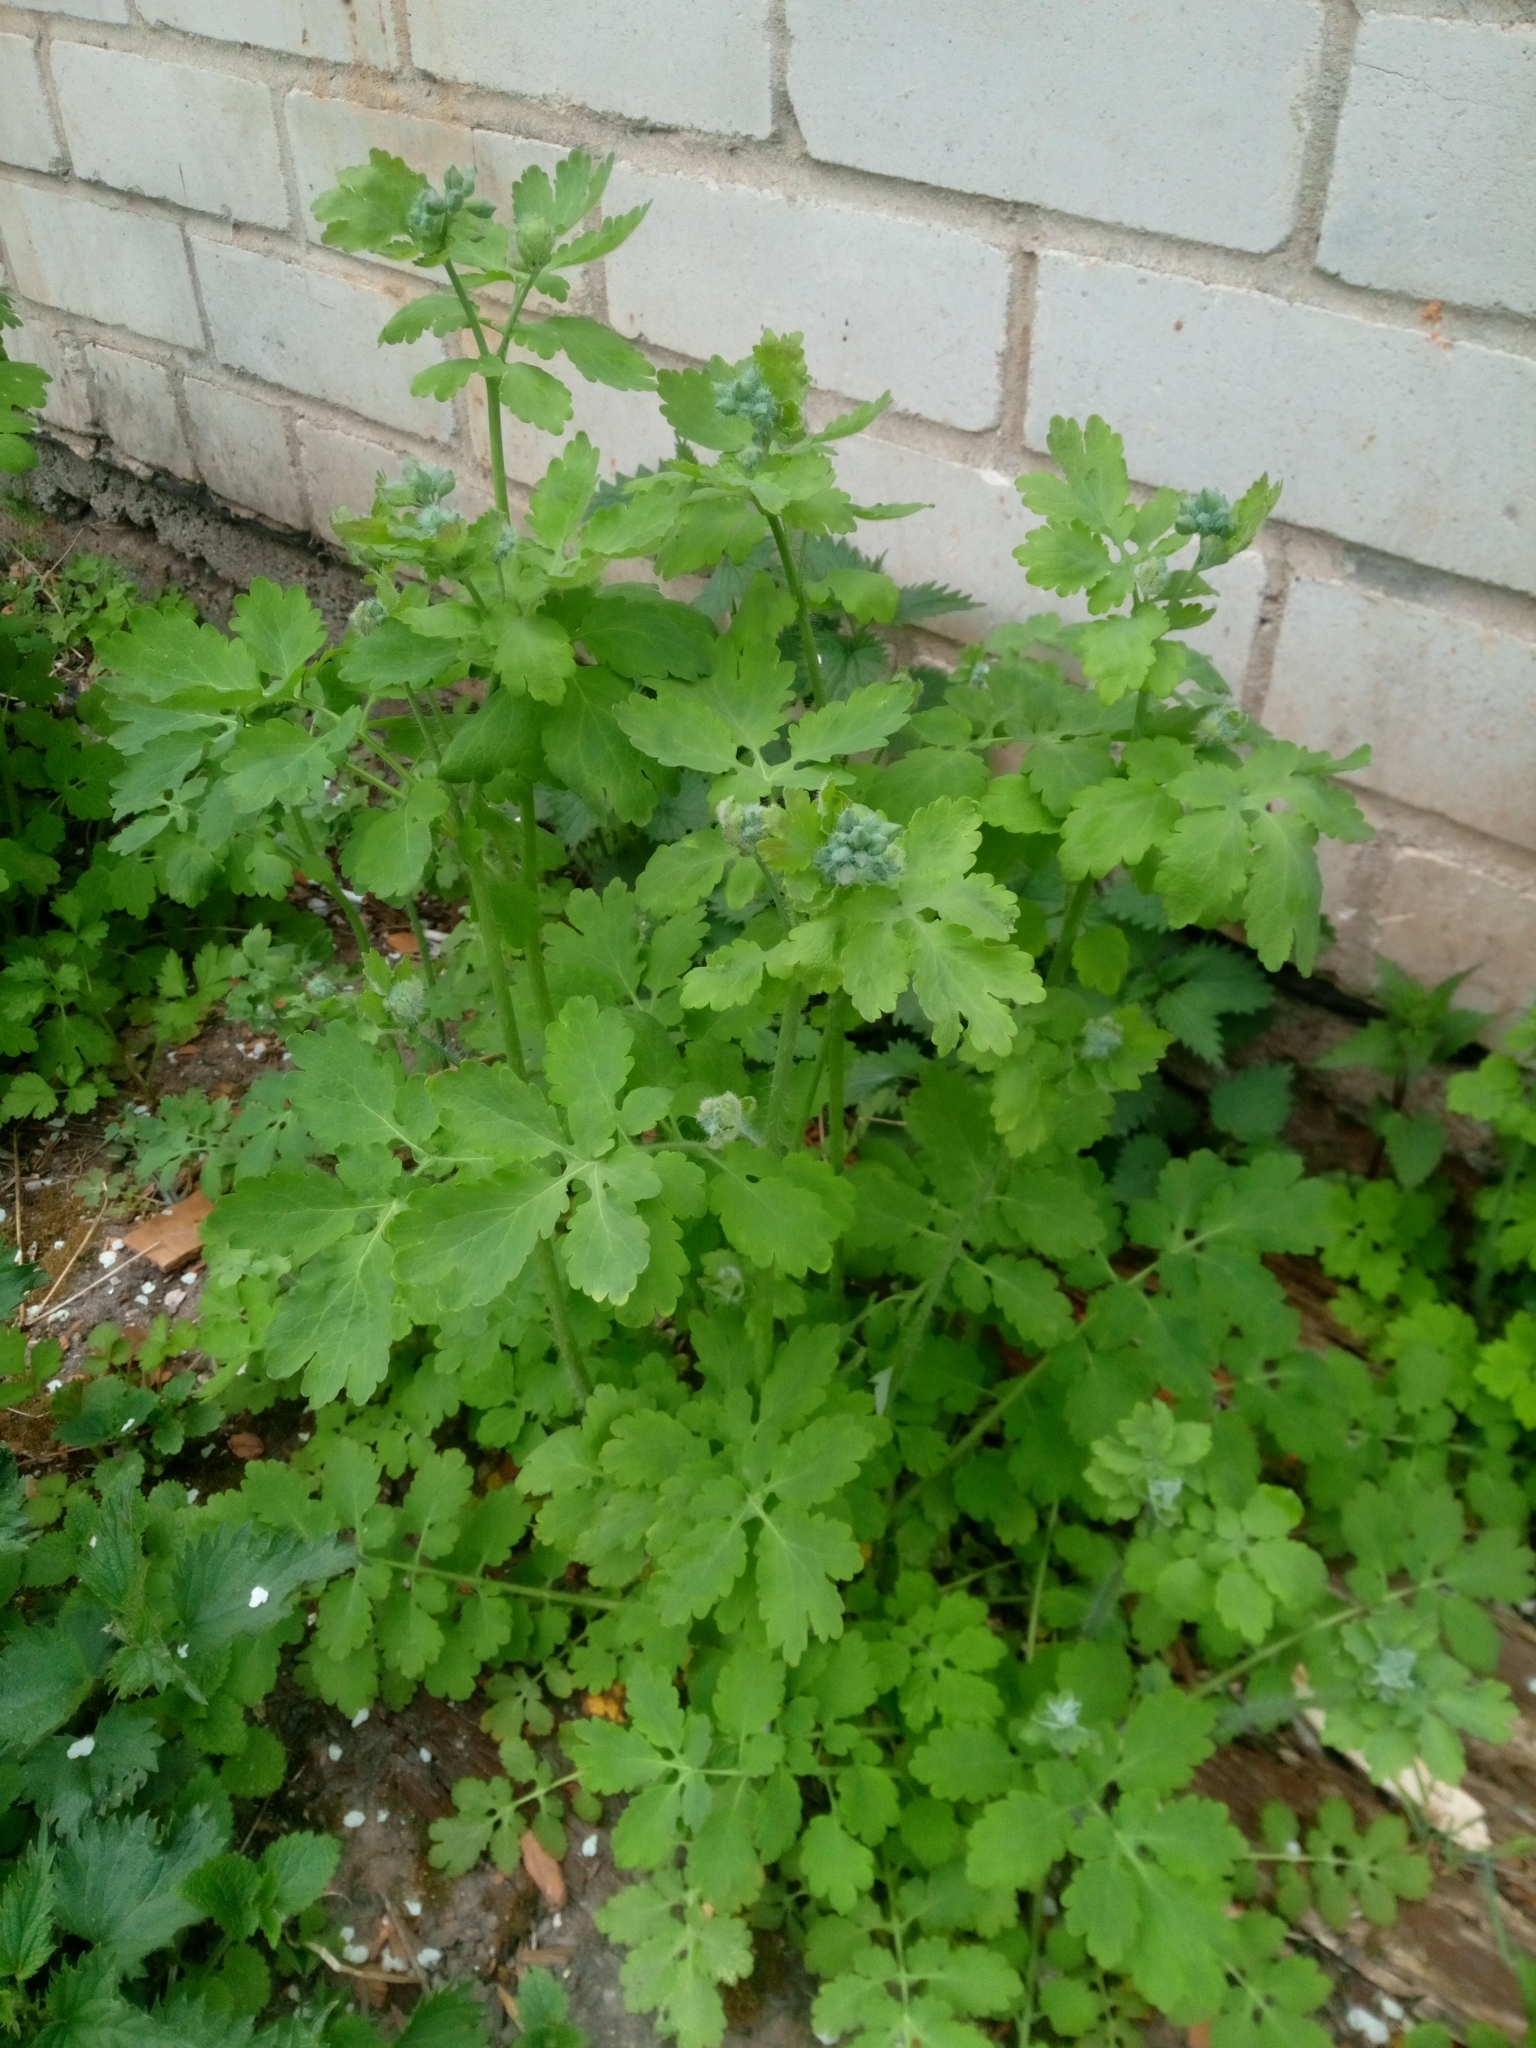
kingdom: Plantae
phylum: Tracheophyta
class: Magnoliopsida
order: Ranunculales
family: Papaveraceae
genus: Chelidonium
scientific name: Chelidonium majus
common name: Greater celandine
